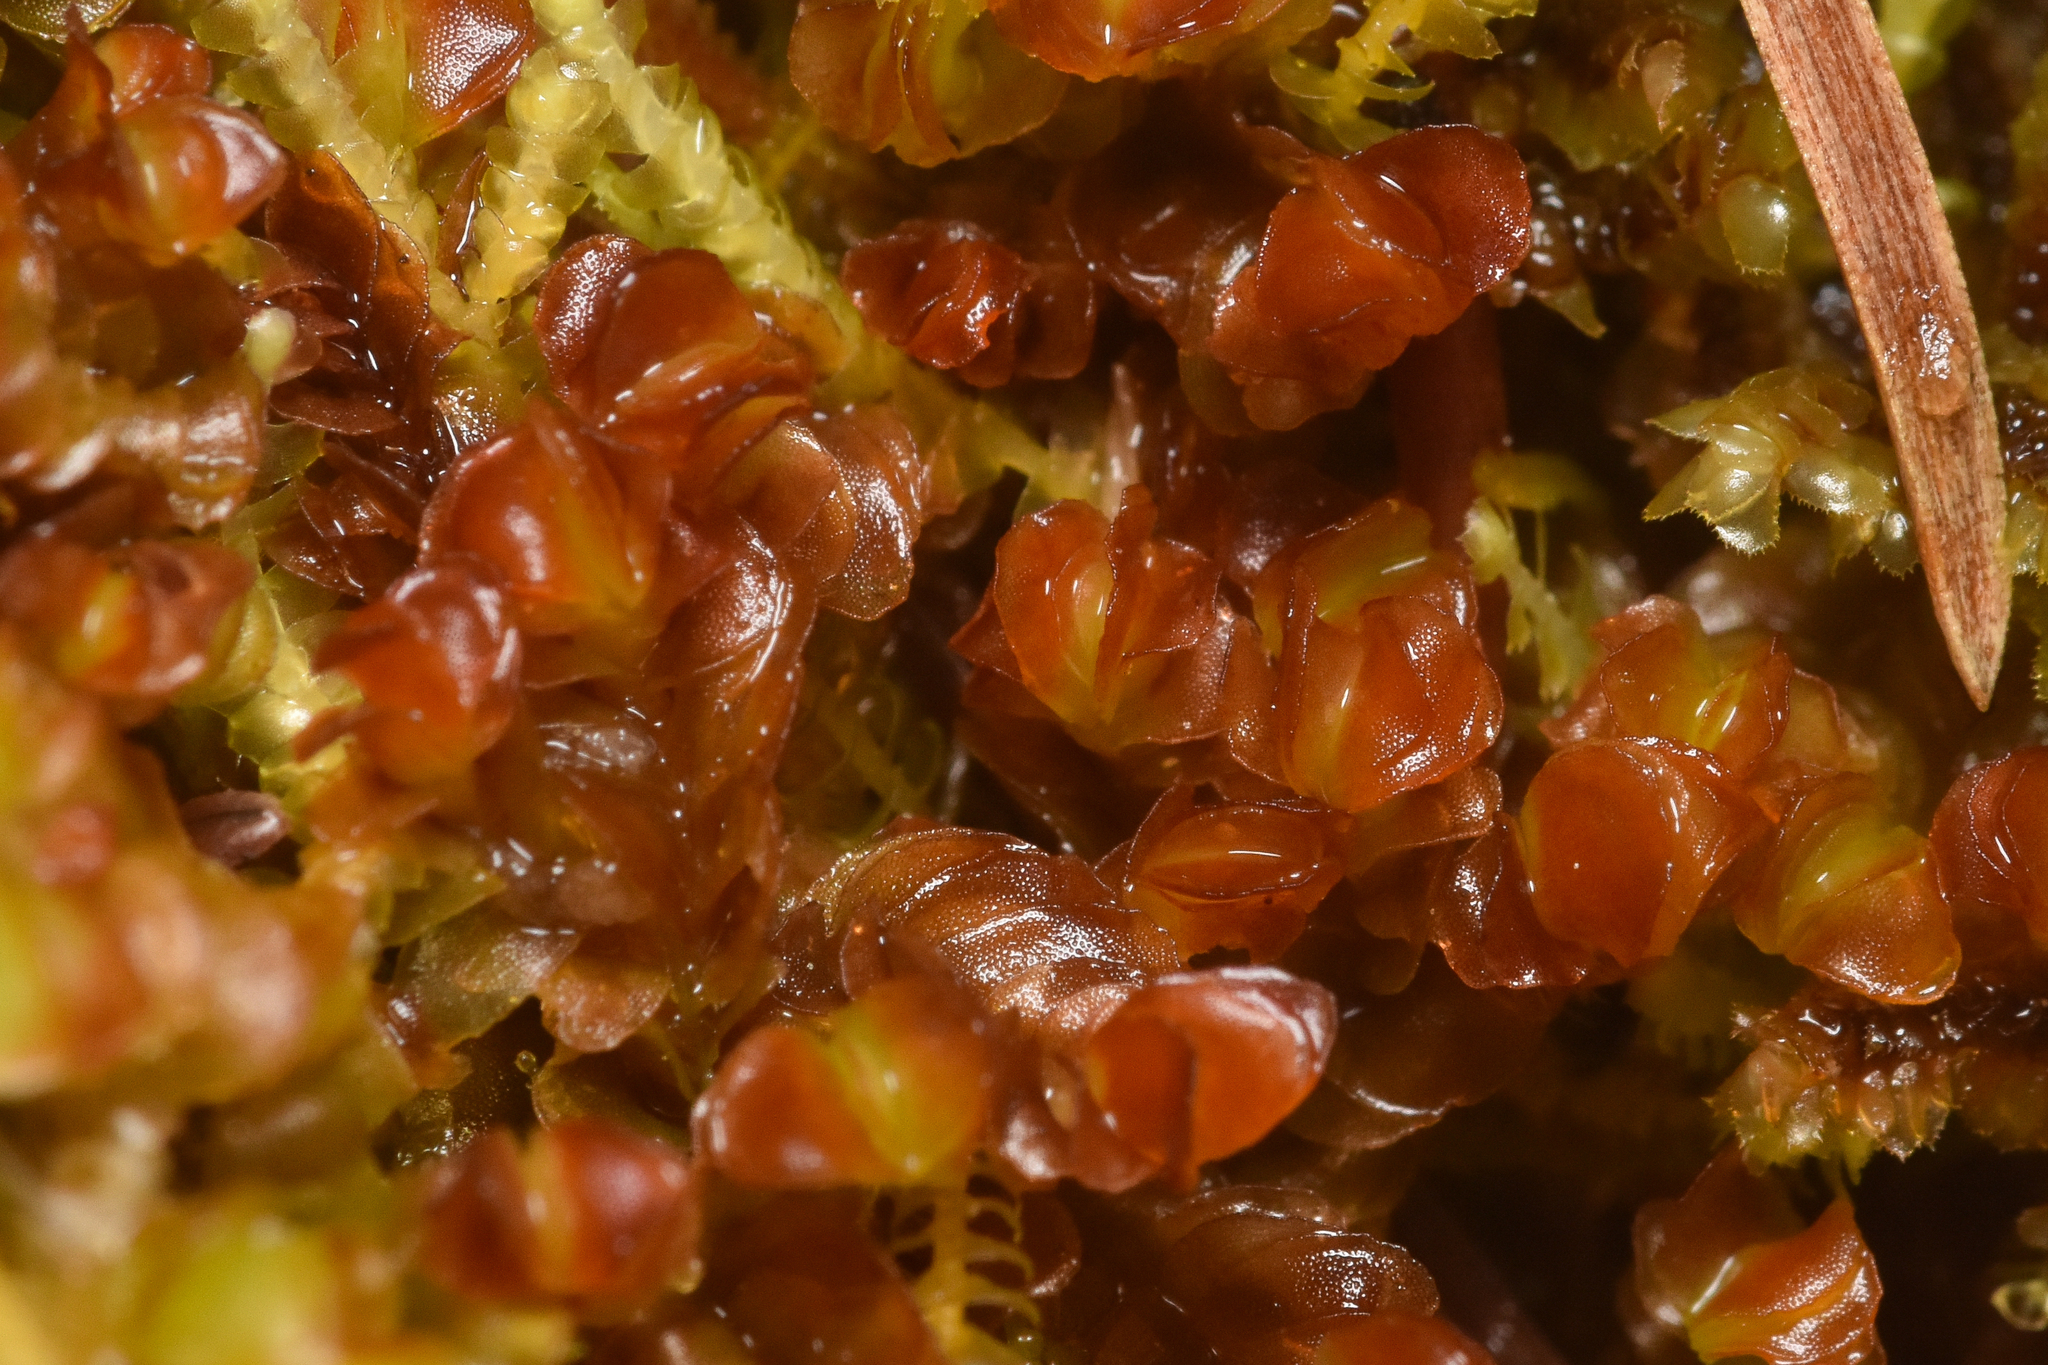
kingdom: Plantae
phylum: Marchantiophyta
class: Jungermanniopsida
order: Jungermanniales
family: Myliaceae
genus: Mylia
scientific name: Mylia taylorii
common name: Taylor s flapwort
